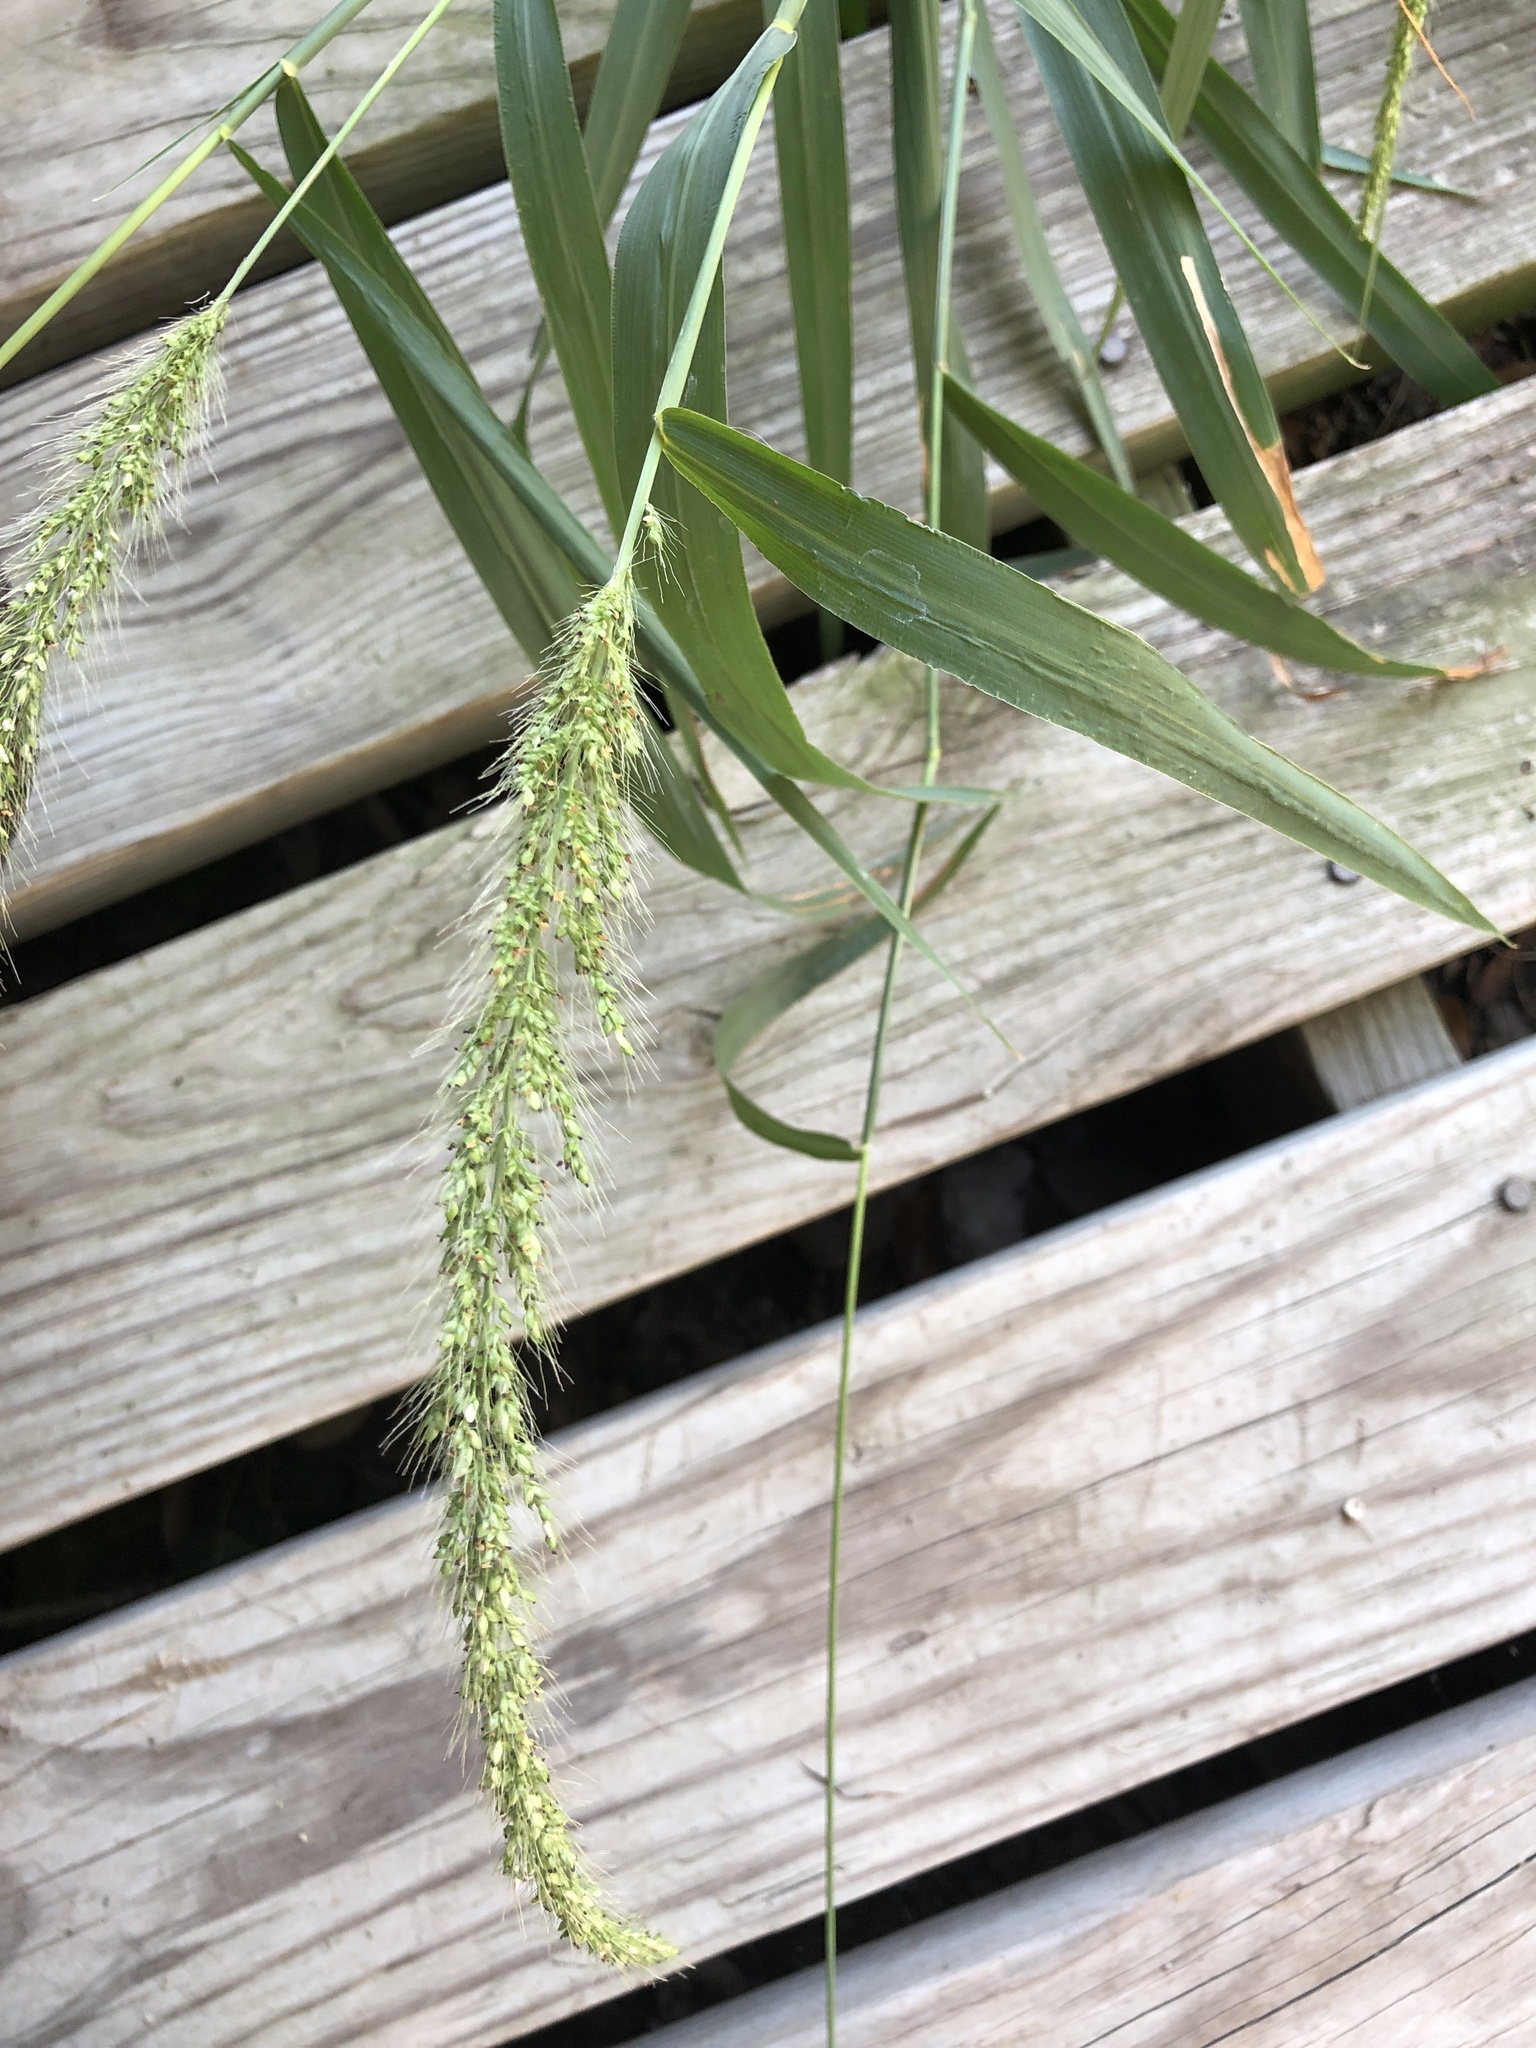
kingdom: Plantae
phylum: Tracheophyta
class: Liliopsida
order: Poales
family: Poaceae
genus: Setaria
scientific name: Setaria scheelei
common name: Southwestern bristle grass
